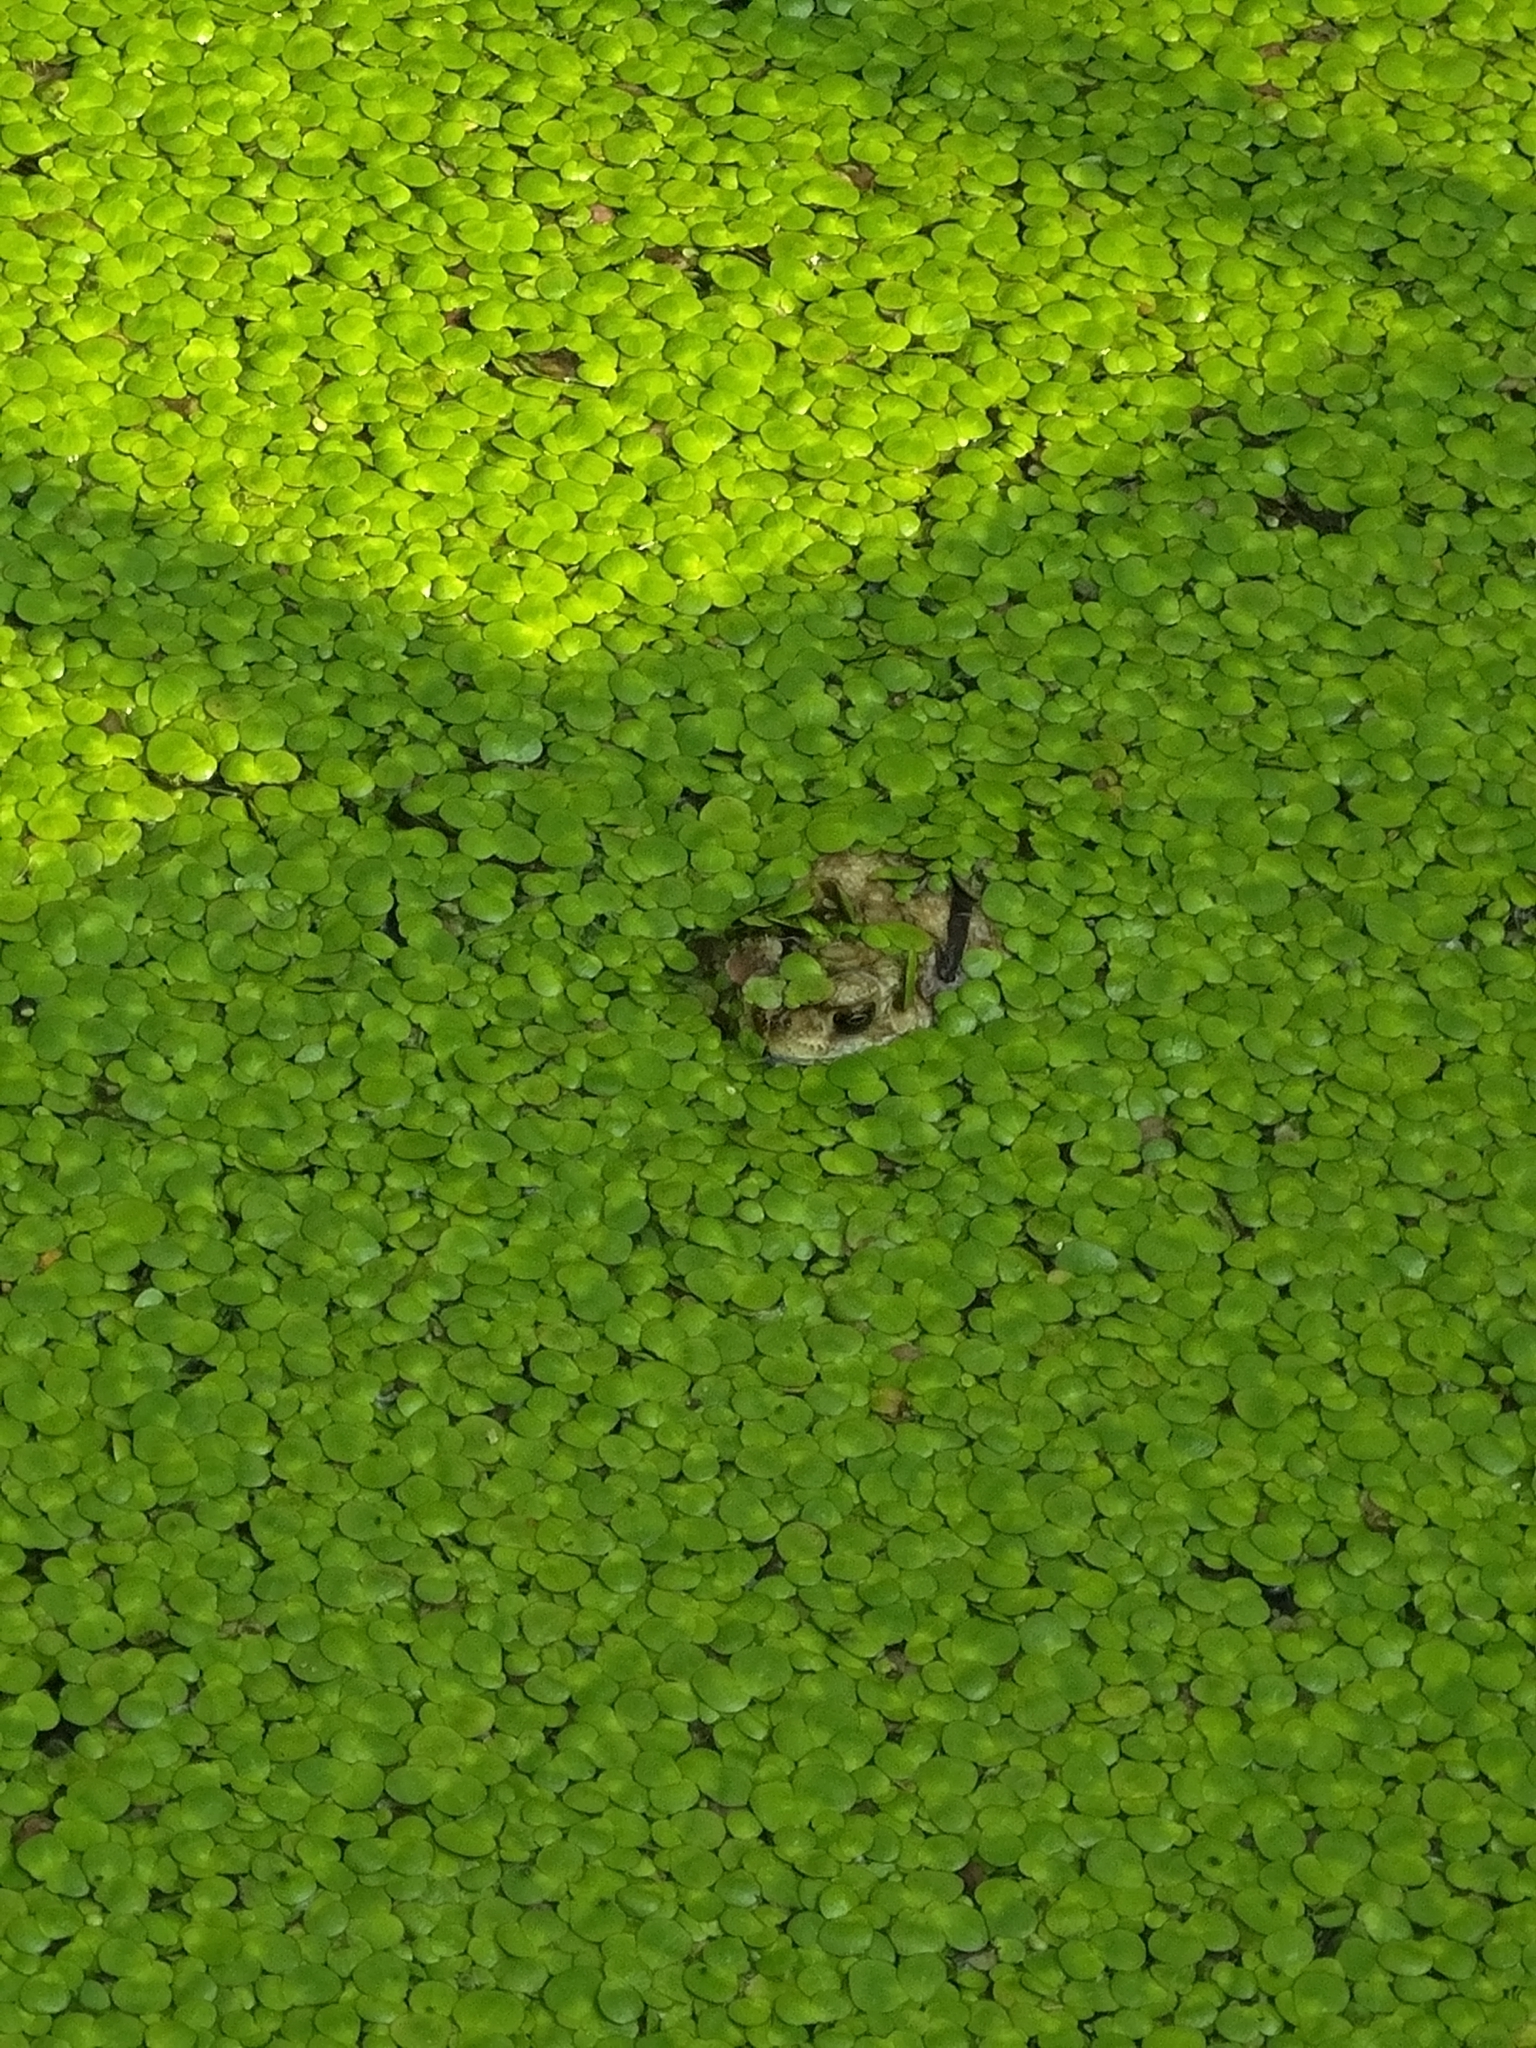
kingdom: Animalia
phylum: Chordata
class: Amphibia
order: Anura
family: Bufonidae
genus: Duttaphrynus
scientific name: Duttaphrynus melanostictus
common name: Common sunda toad
